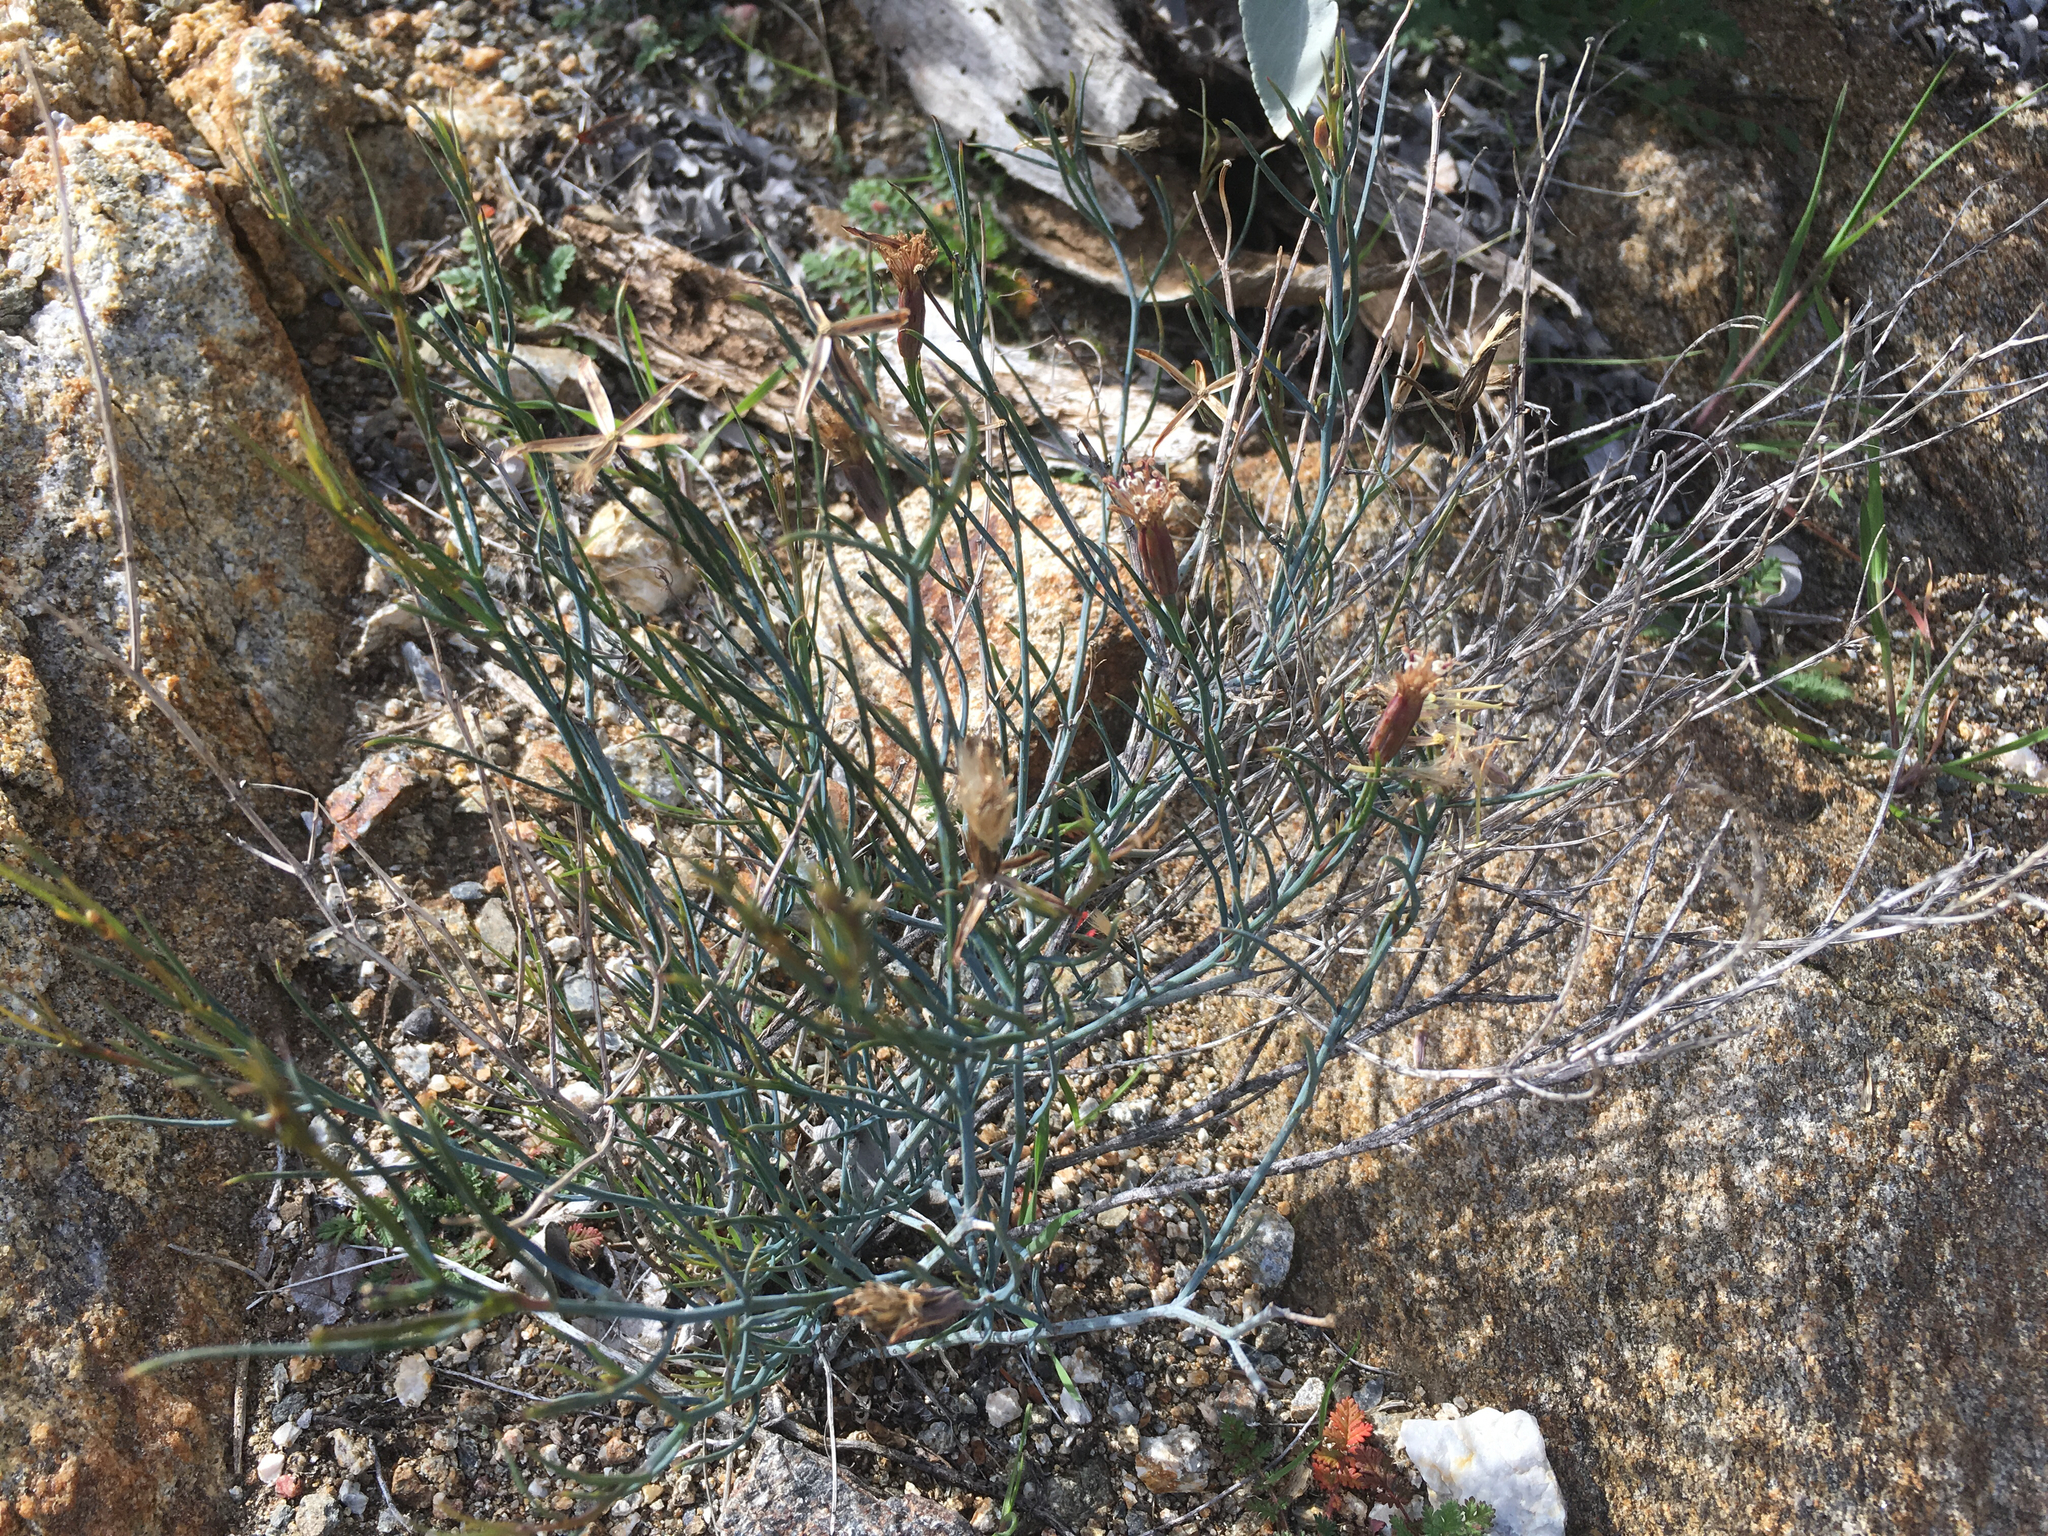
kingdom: Plantae
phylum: Tracheophyta
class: Magnoliopsida
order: Asterales
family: Asteraceae
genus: Porophyllum
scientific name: Porophyllum gracile
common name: Odora
